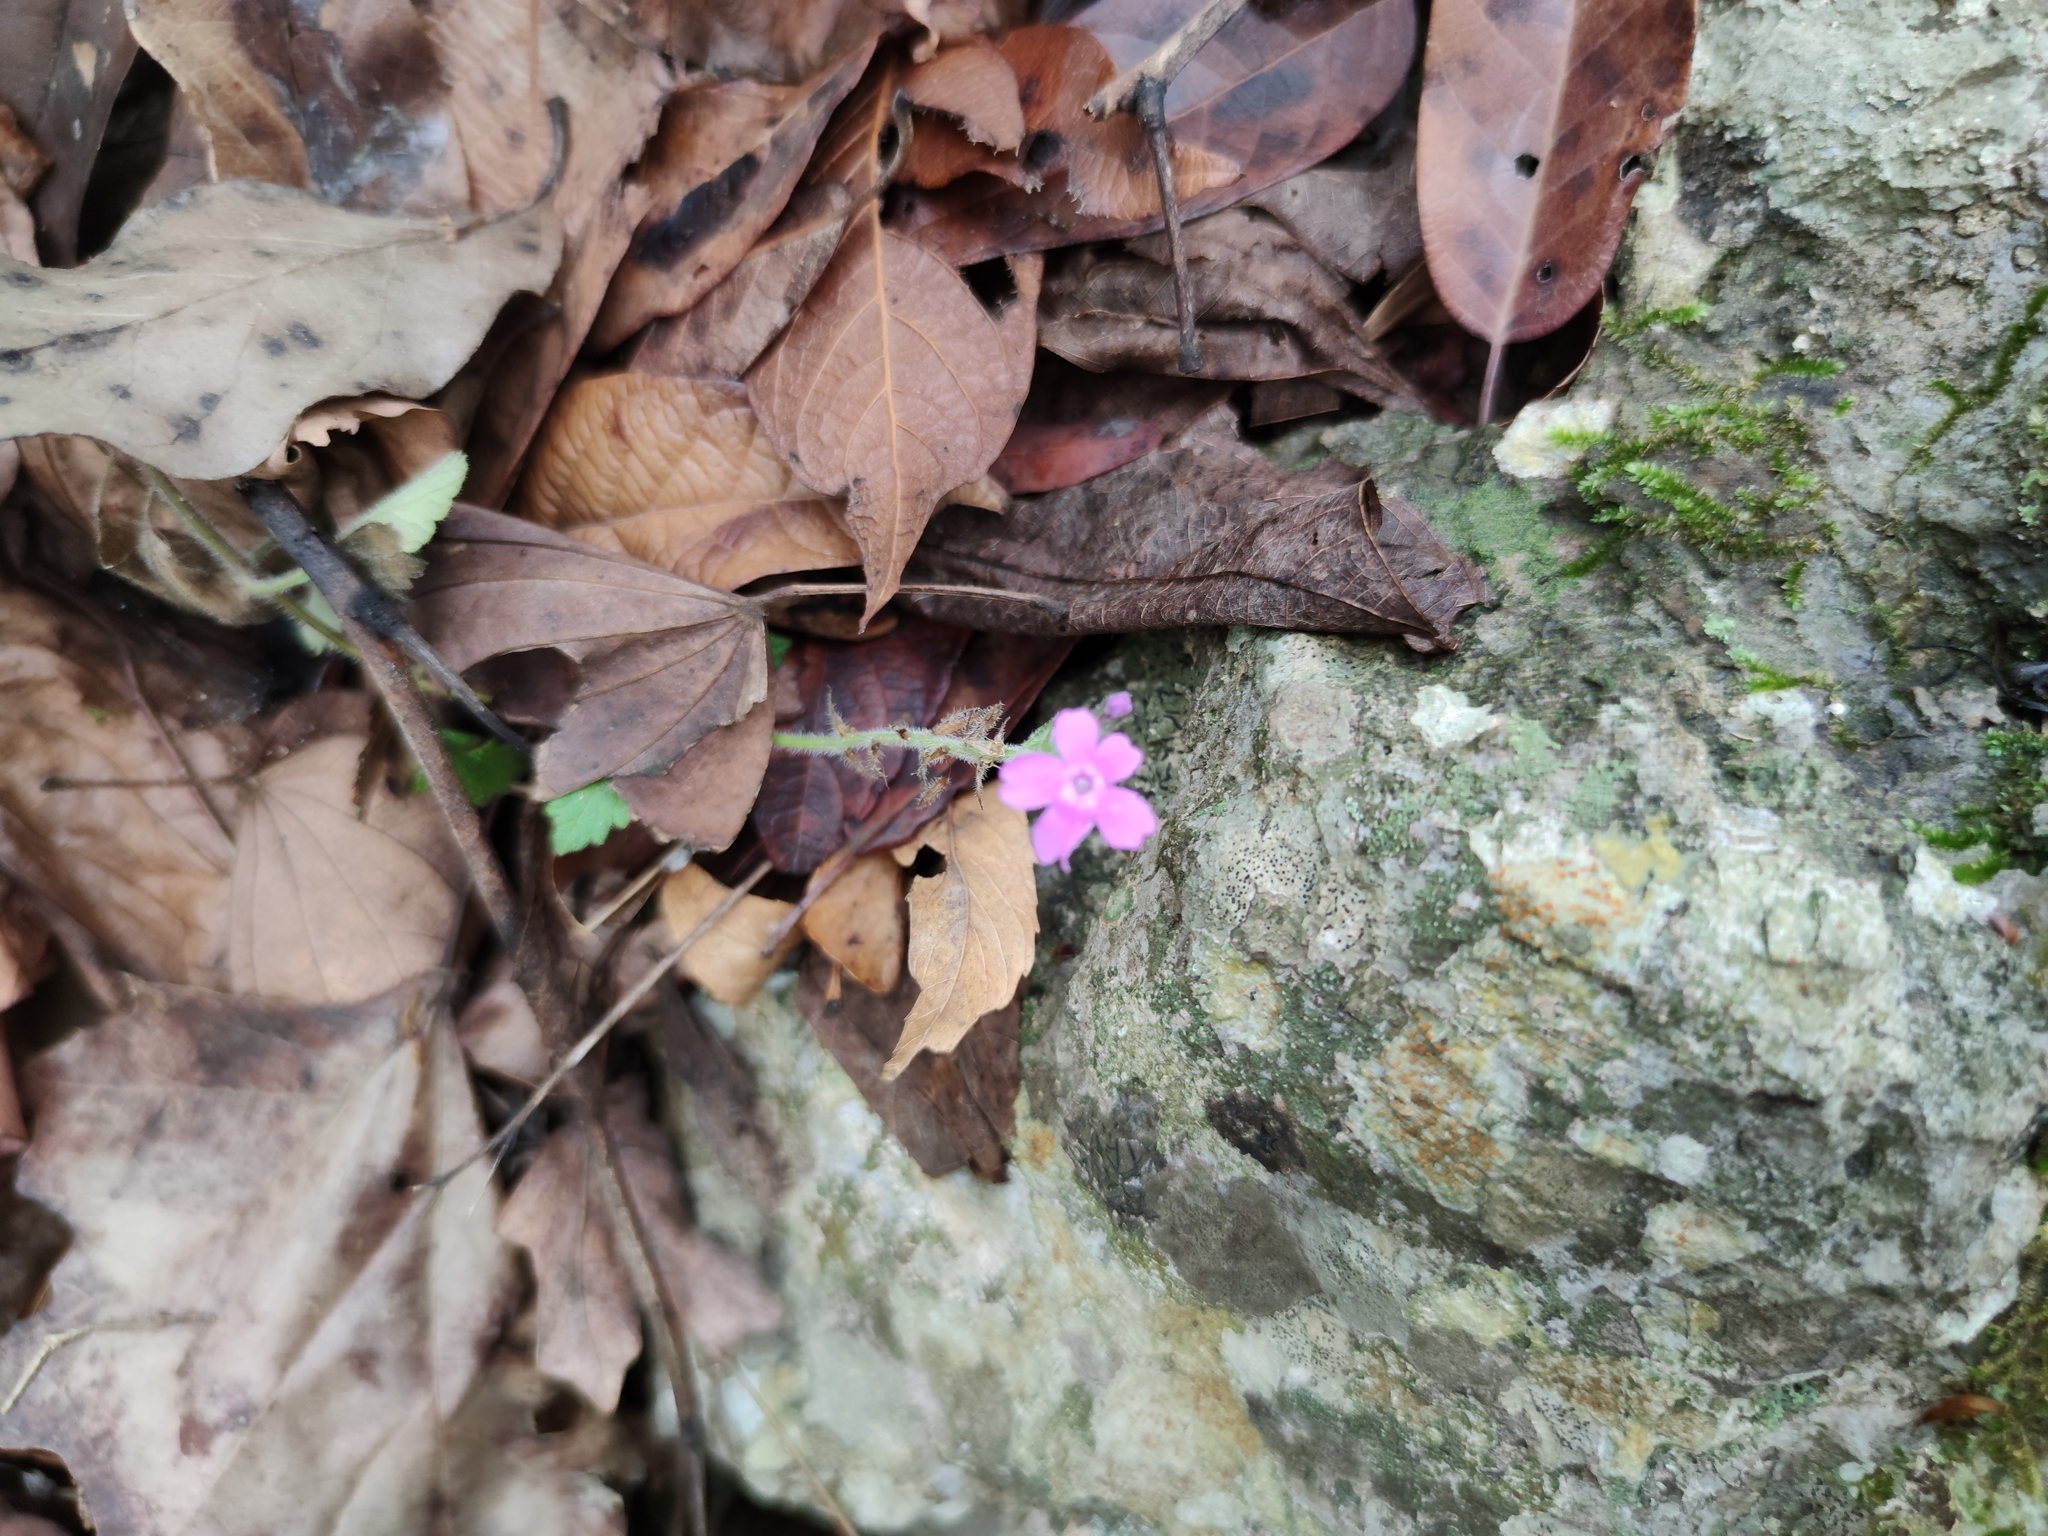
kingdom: Plantae
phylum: Tracheophyta
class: Magnoliopsida
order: Lamiales
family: Verbenaceae
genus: Verbena
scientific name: Verbena canadensis
